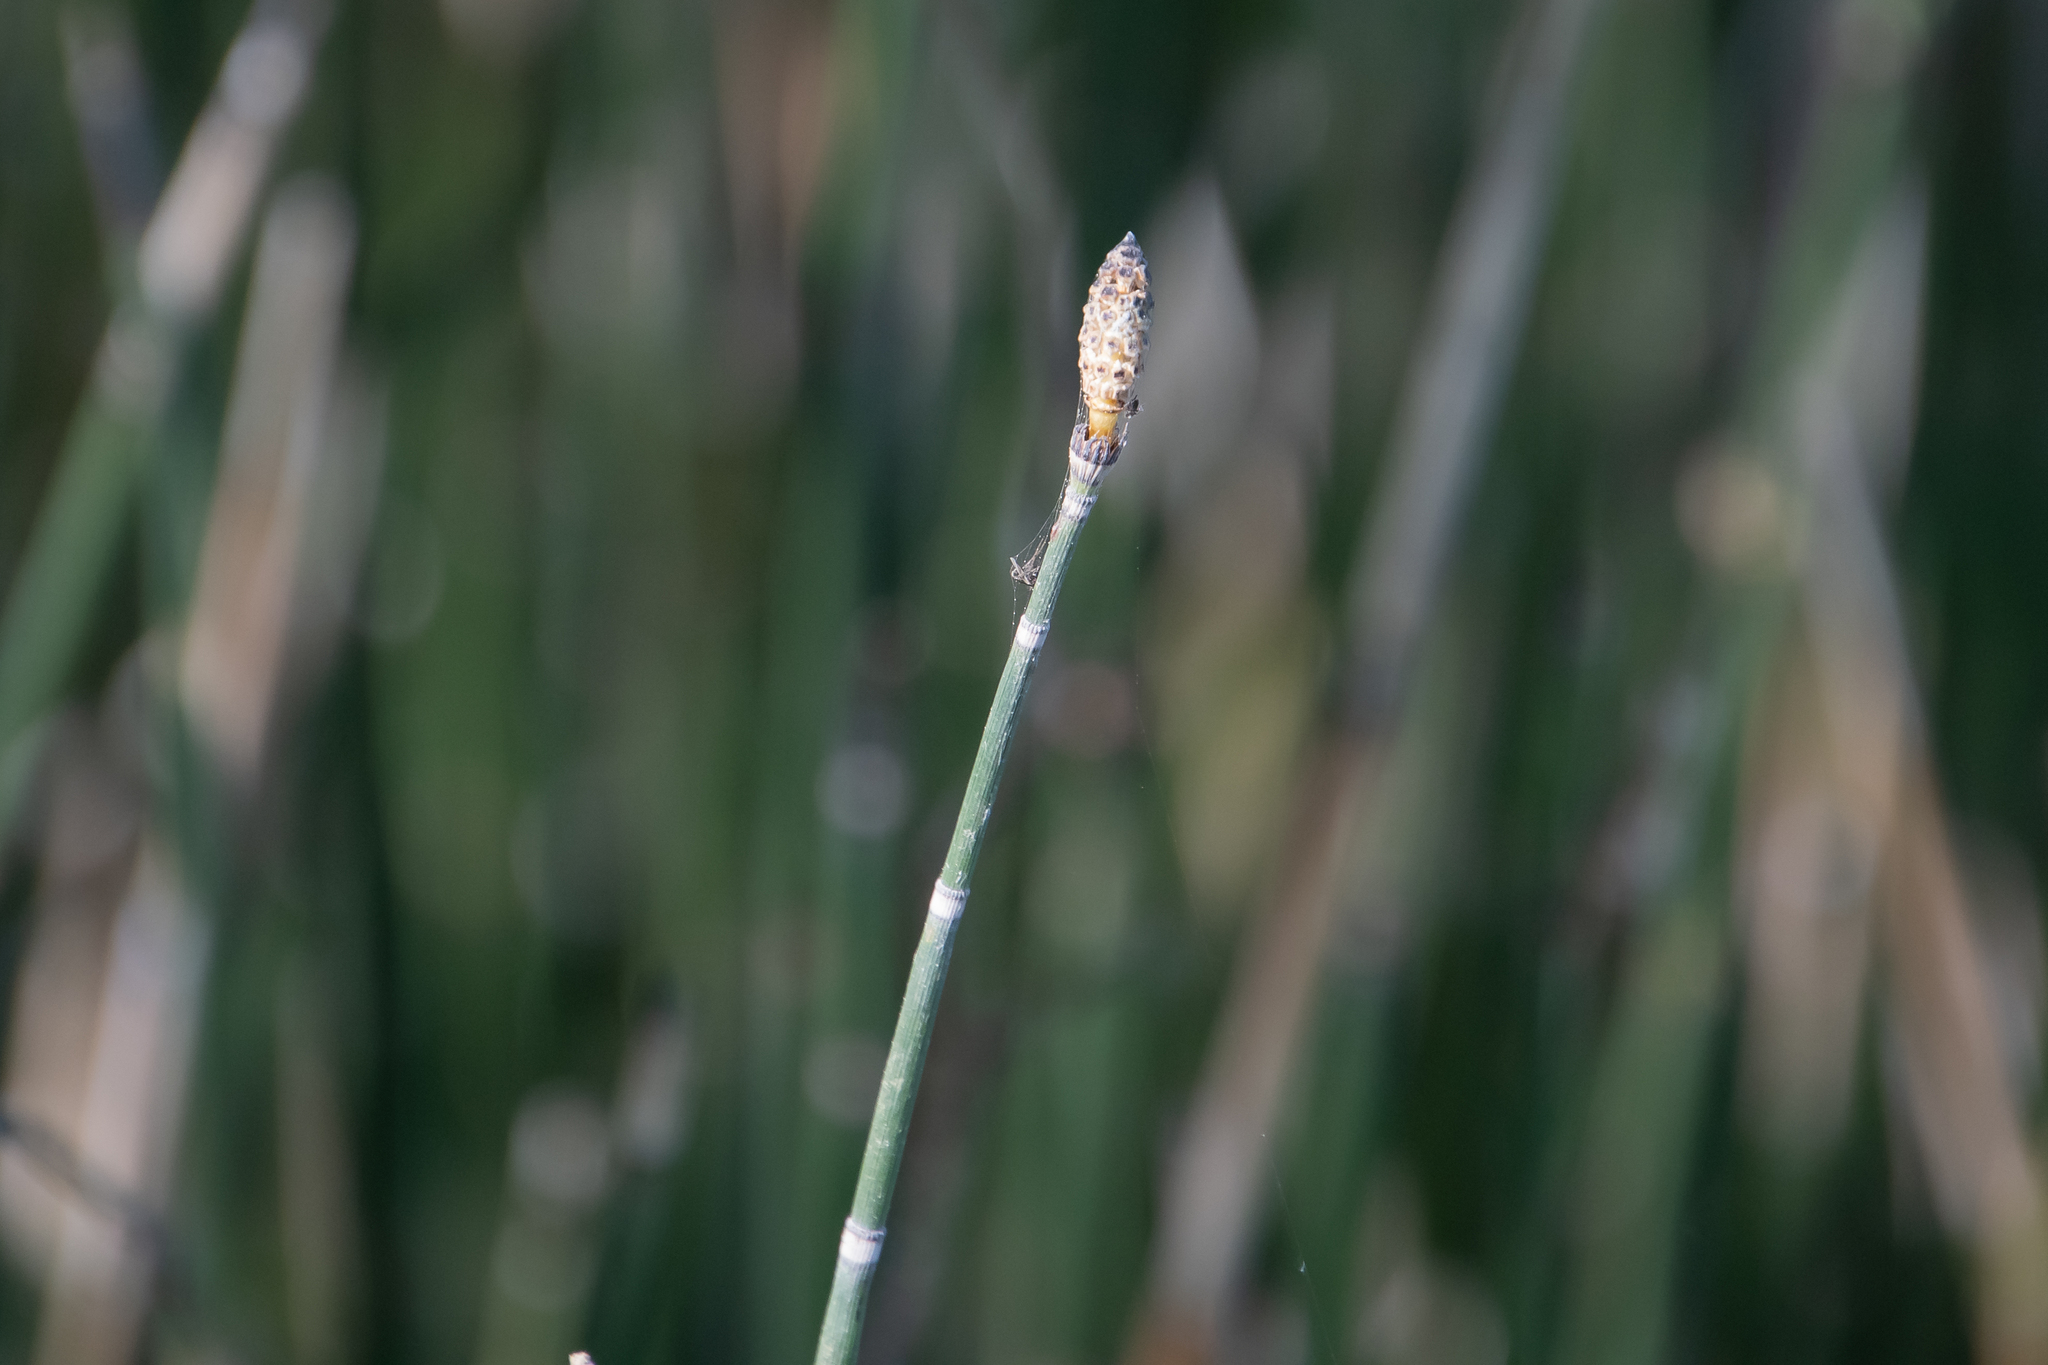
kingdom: Plantae
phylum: Tracheophyta
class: Polypodiopsida
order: Equisetales
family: Equisetaceae
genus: Equisetum
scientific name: Equisetum hyemale
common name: Rough horsetail
